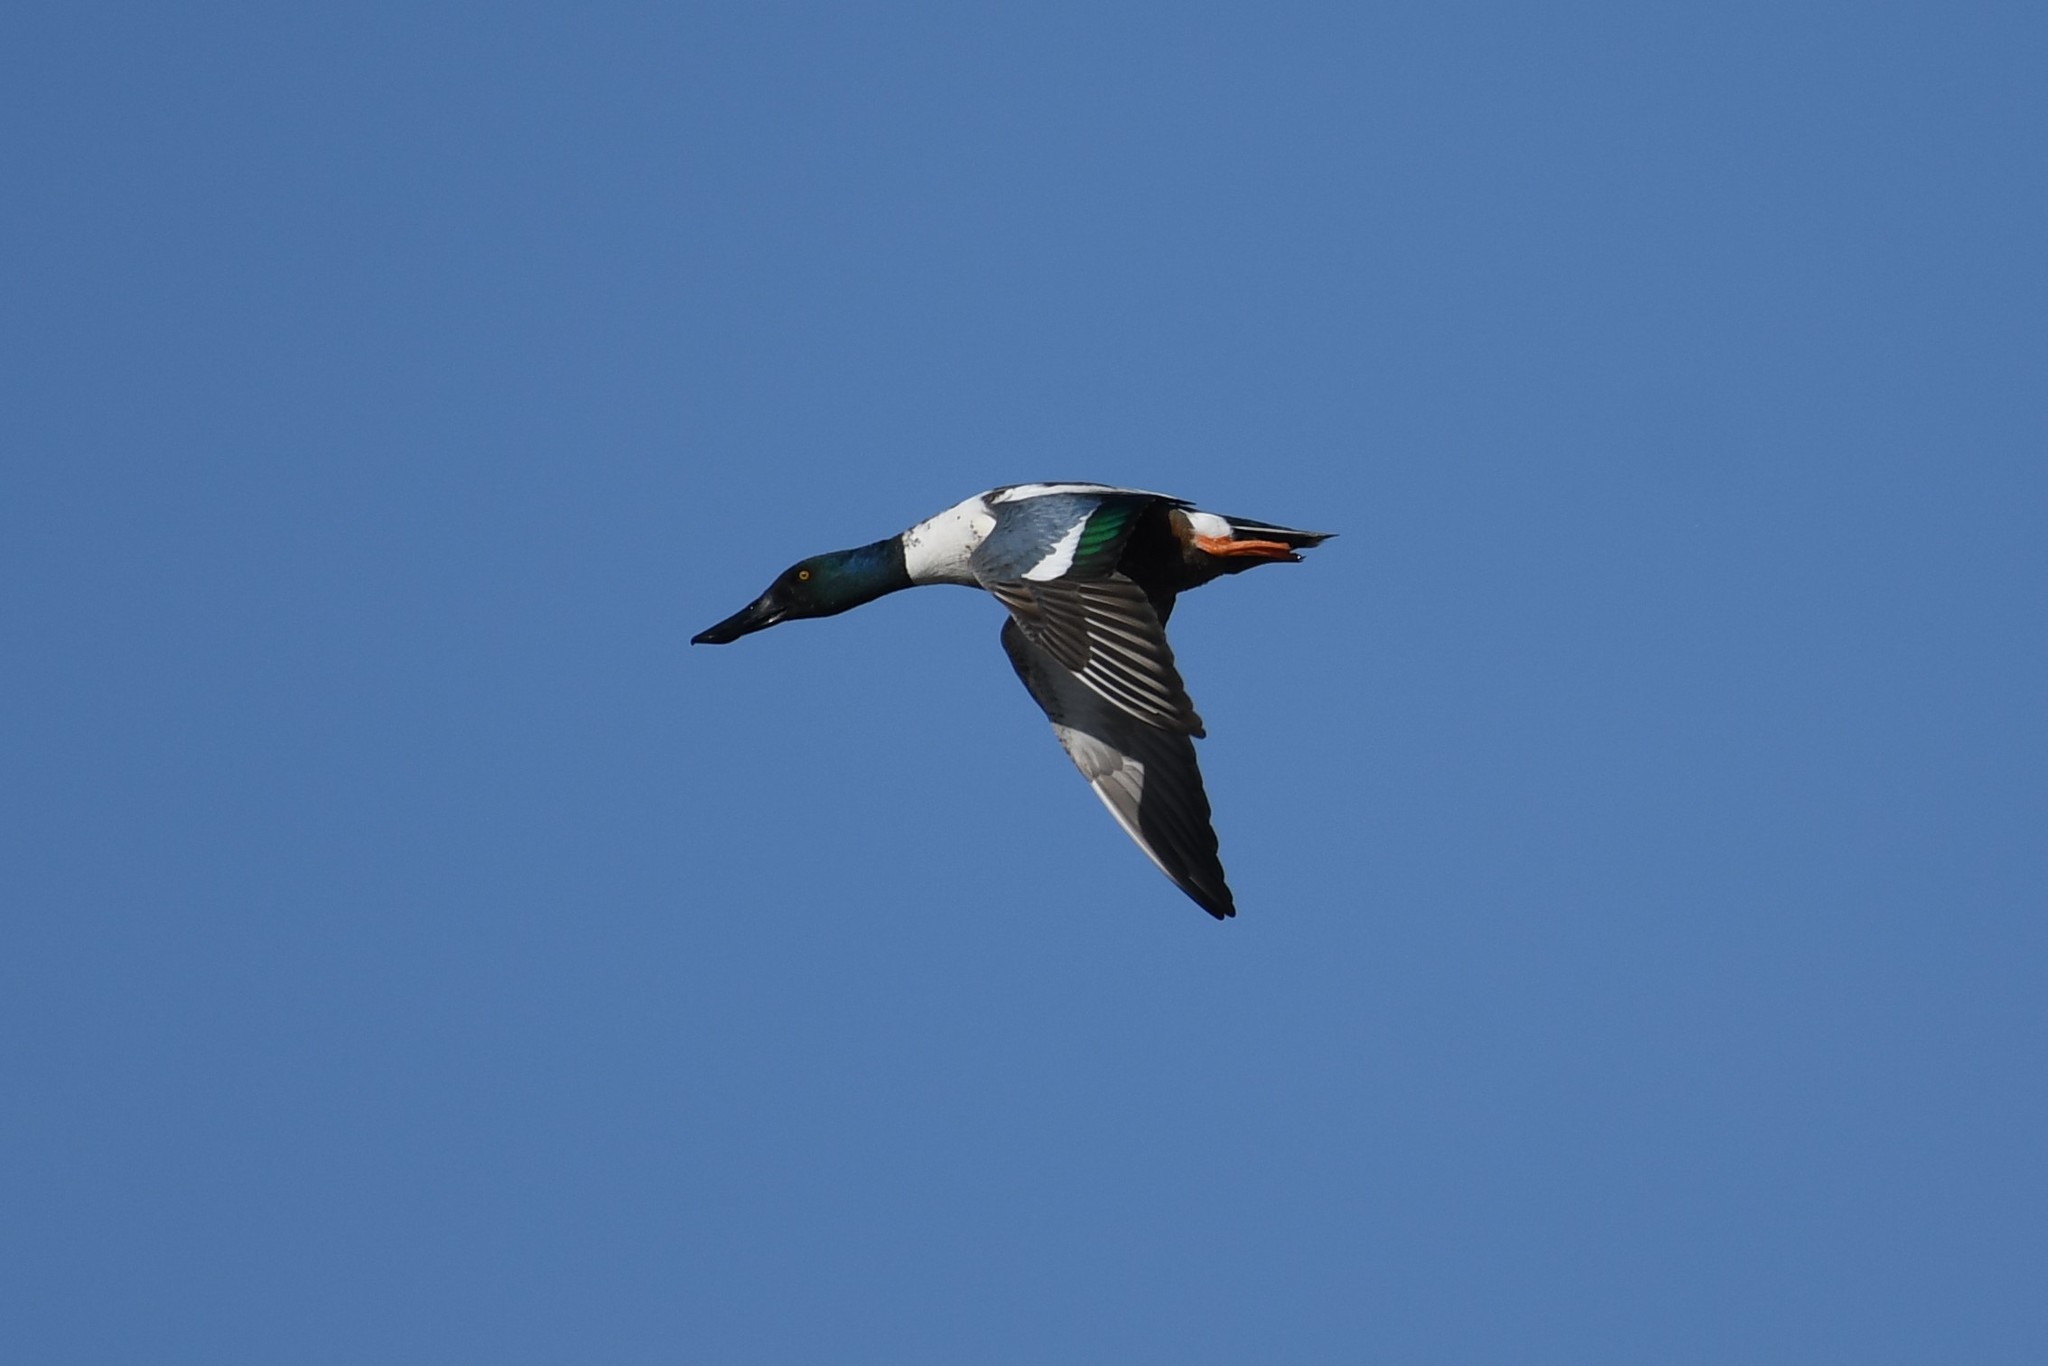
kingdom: Animalia
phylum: Chordata
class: Aves
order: Anseriformes
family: Anatidae
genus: Spatula
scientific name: Spatula clypeata
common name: Northern shoveler
